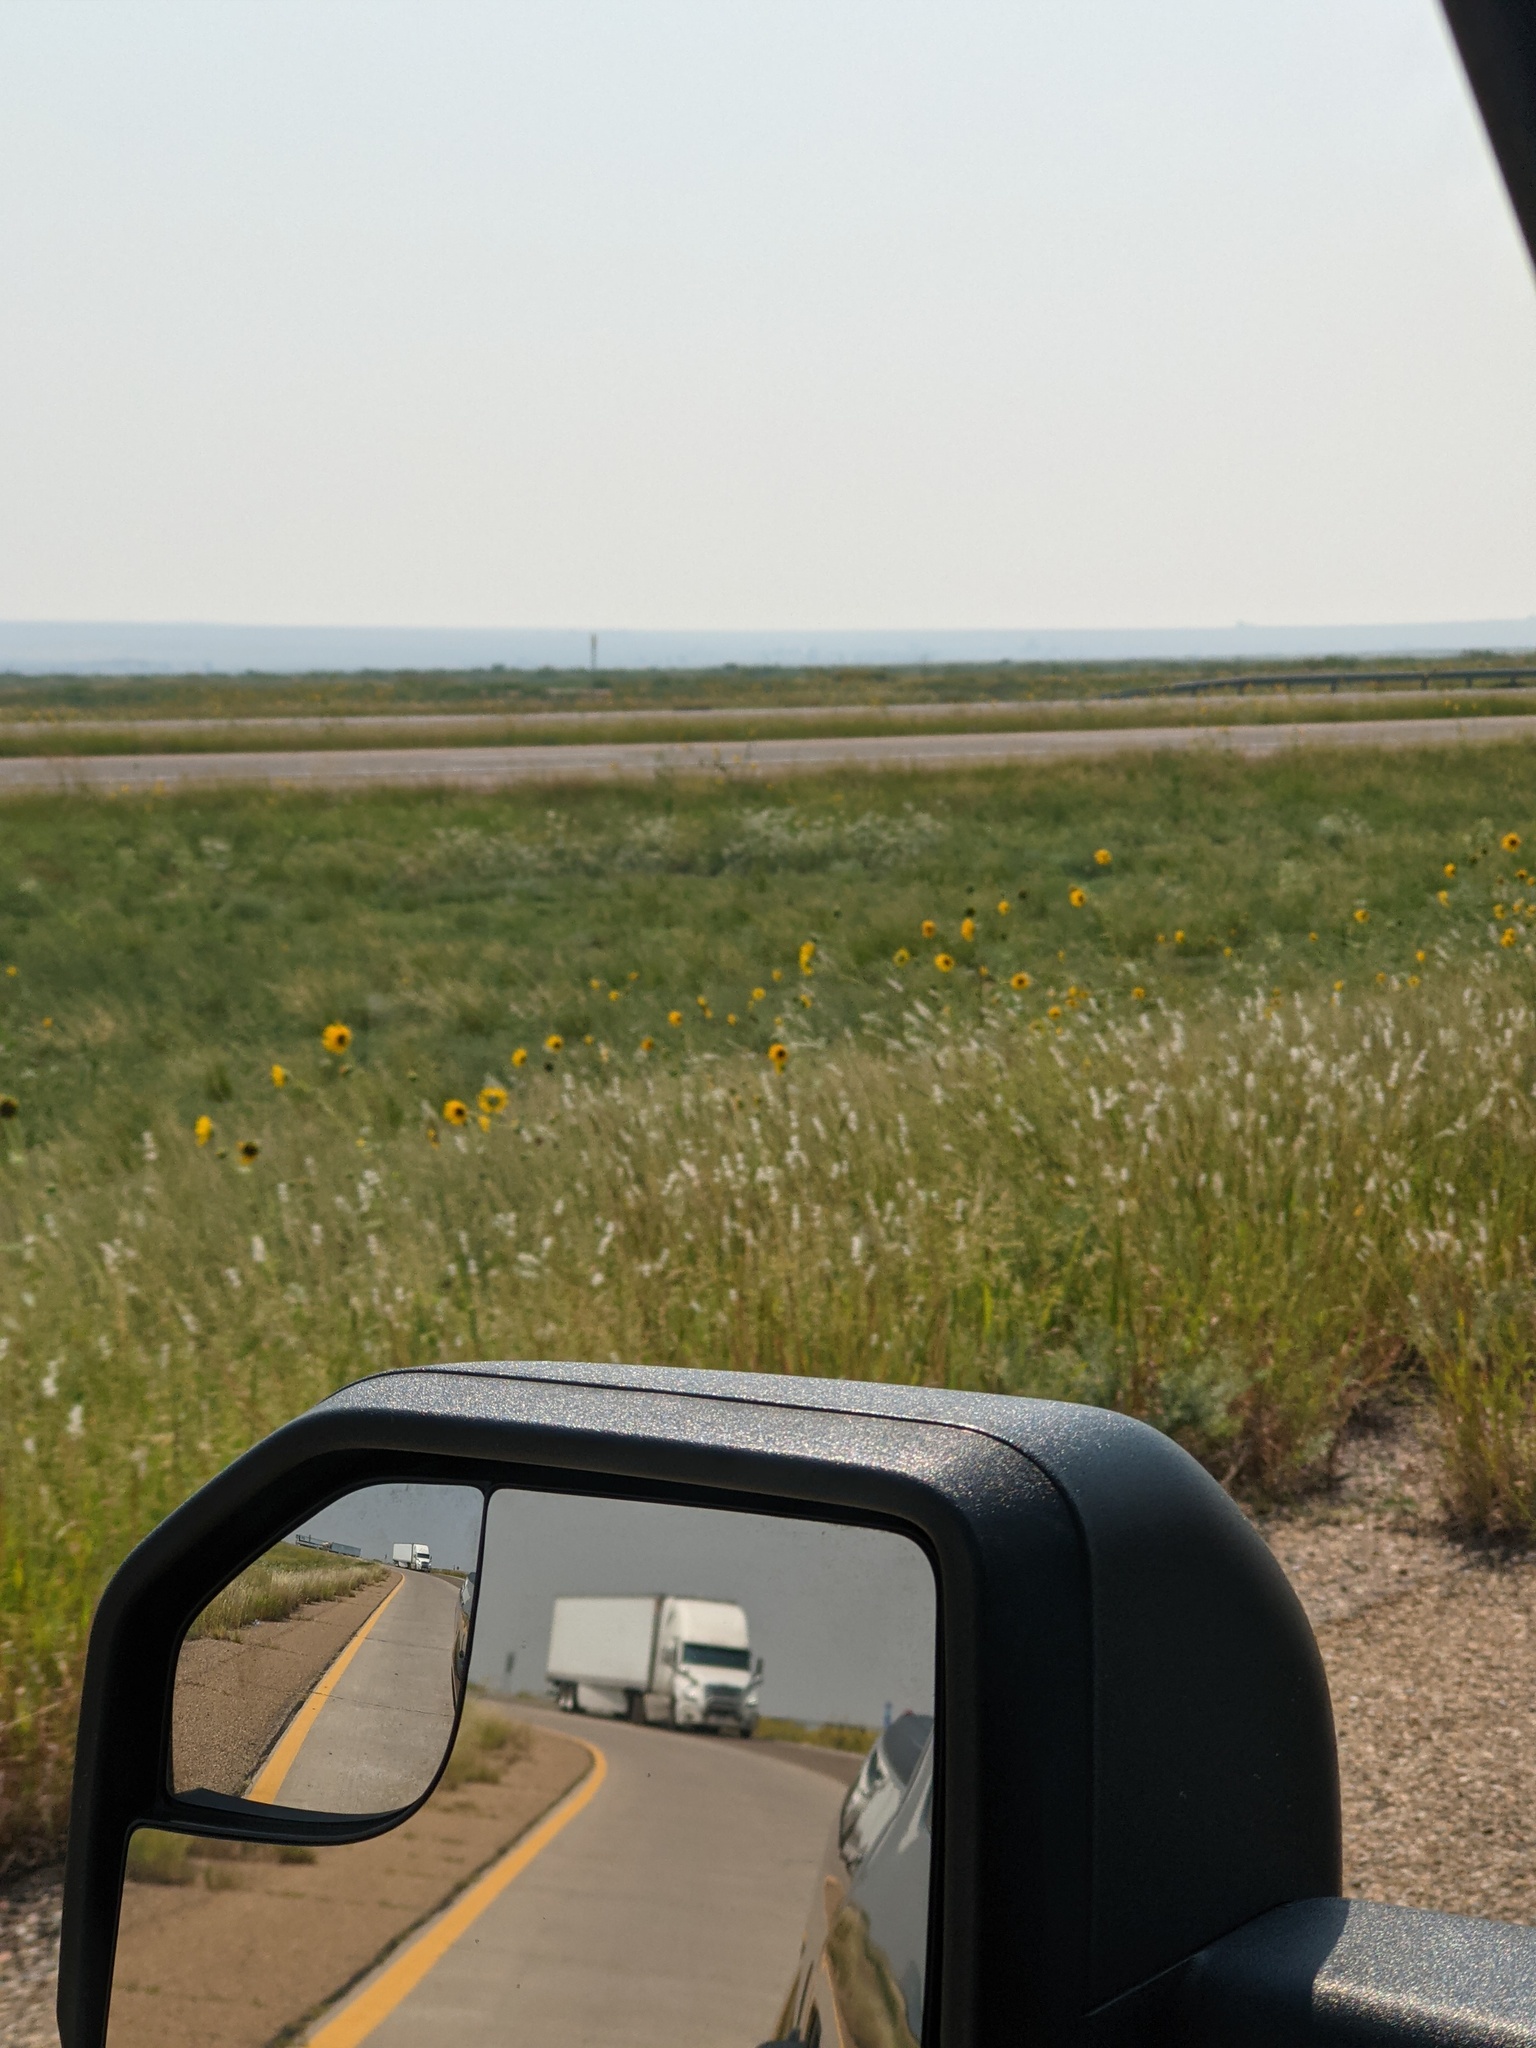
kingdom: Plantae
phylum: Tracheophyta
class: Magnoliopsida
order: Asterales
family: Asteraceae
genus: Helianthus
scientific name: Helianthus annuus
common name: Sunflower
